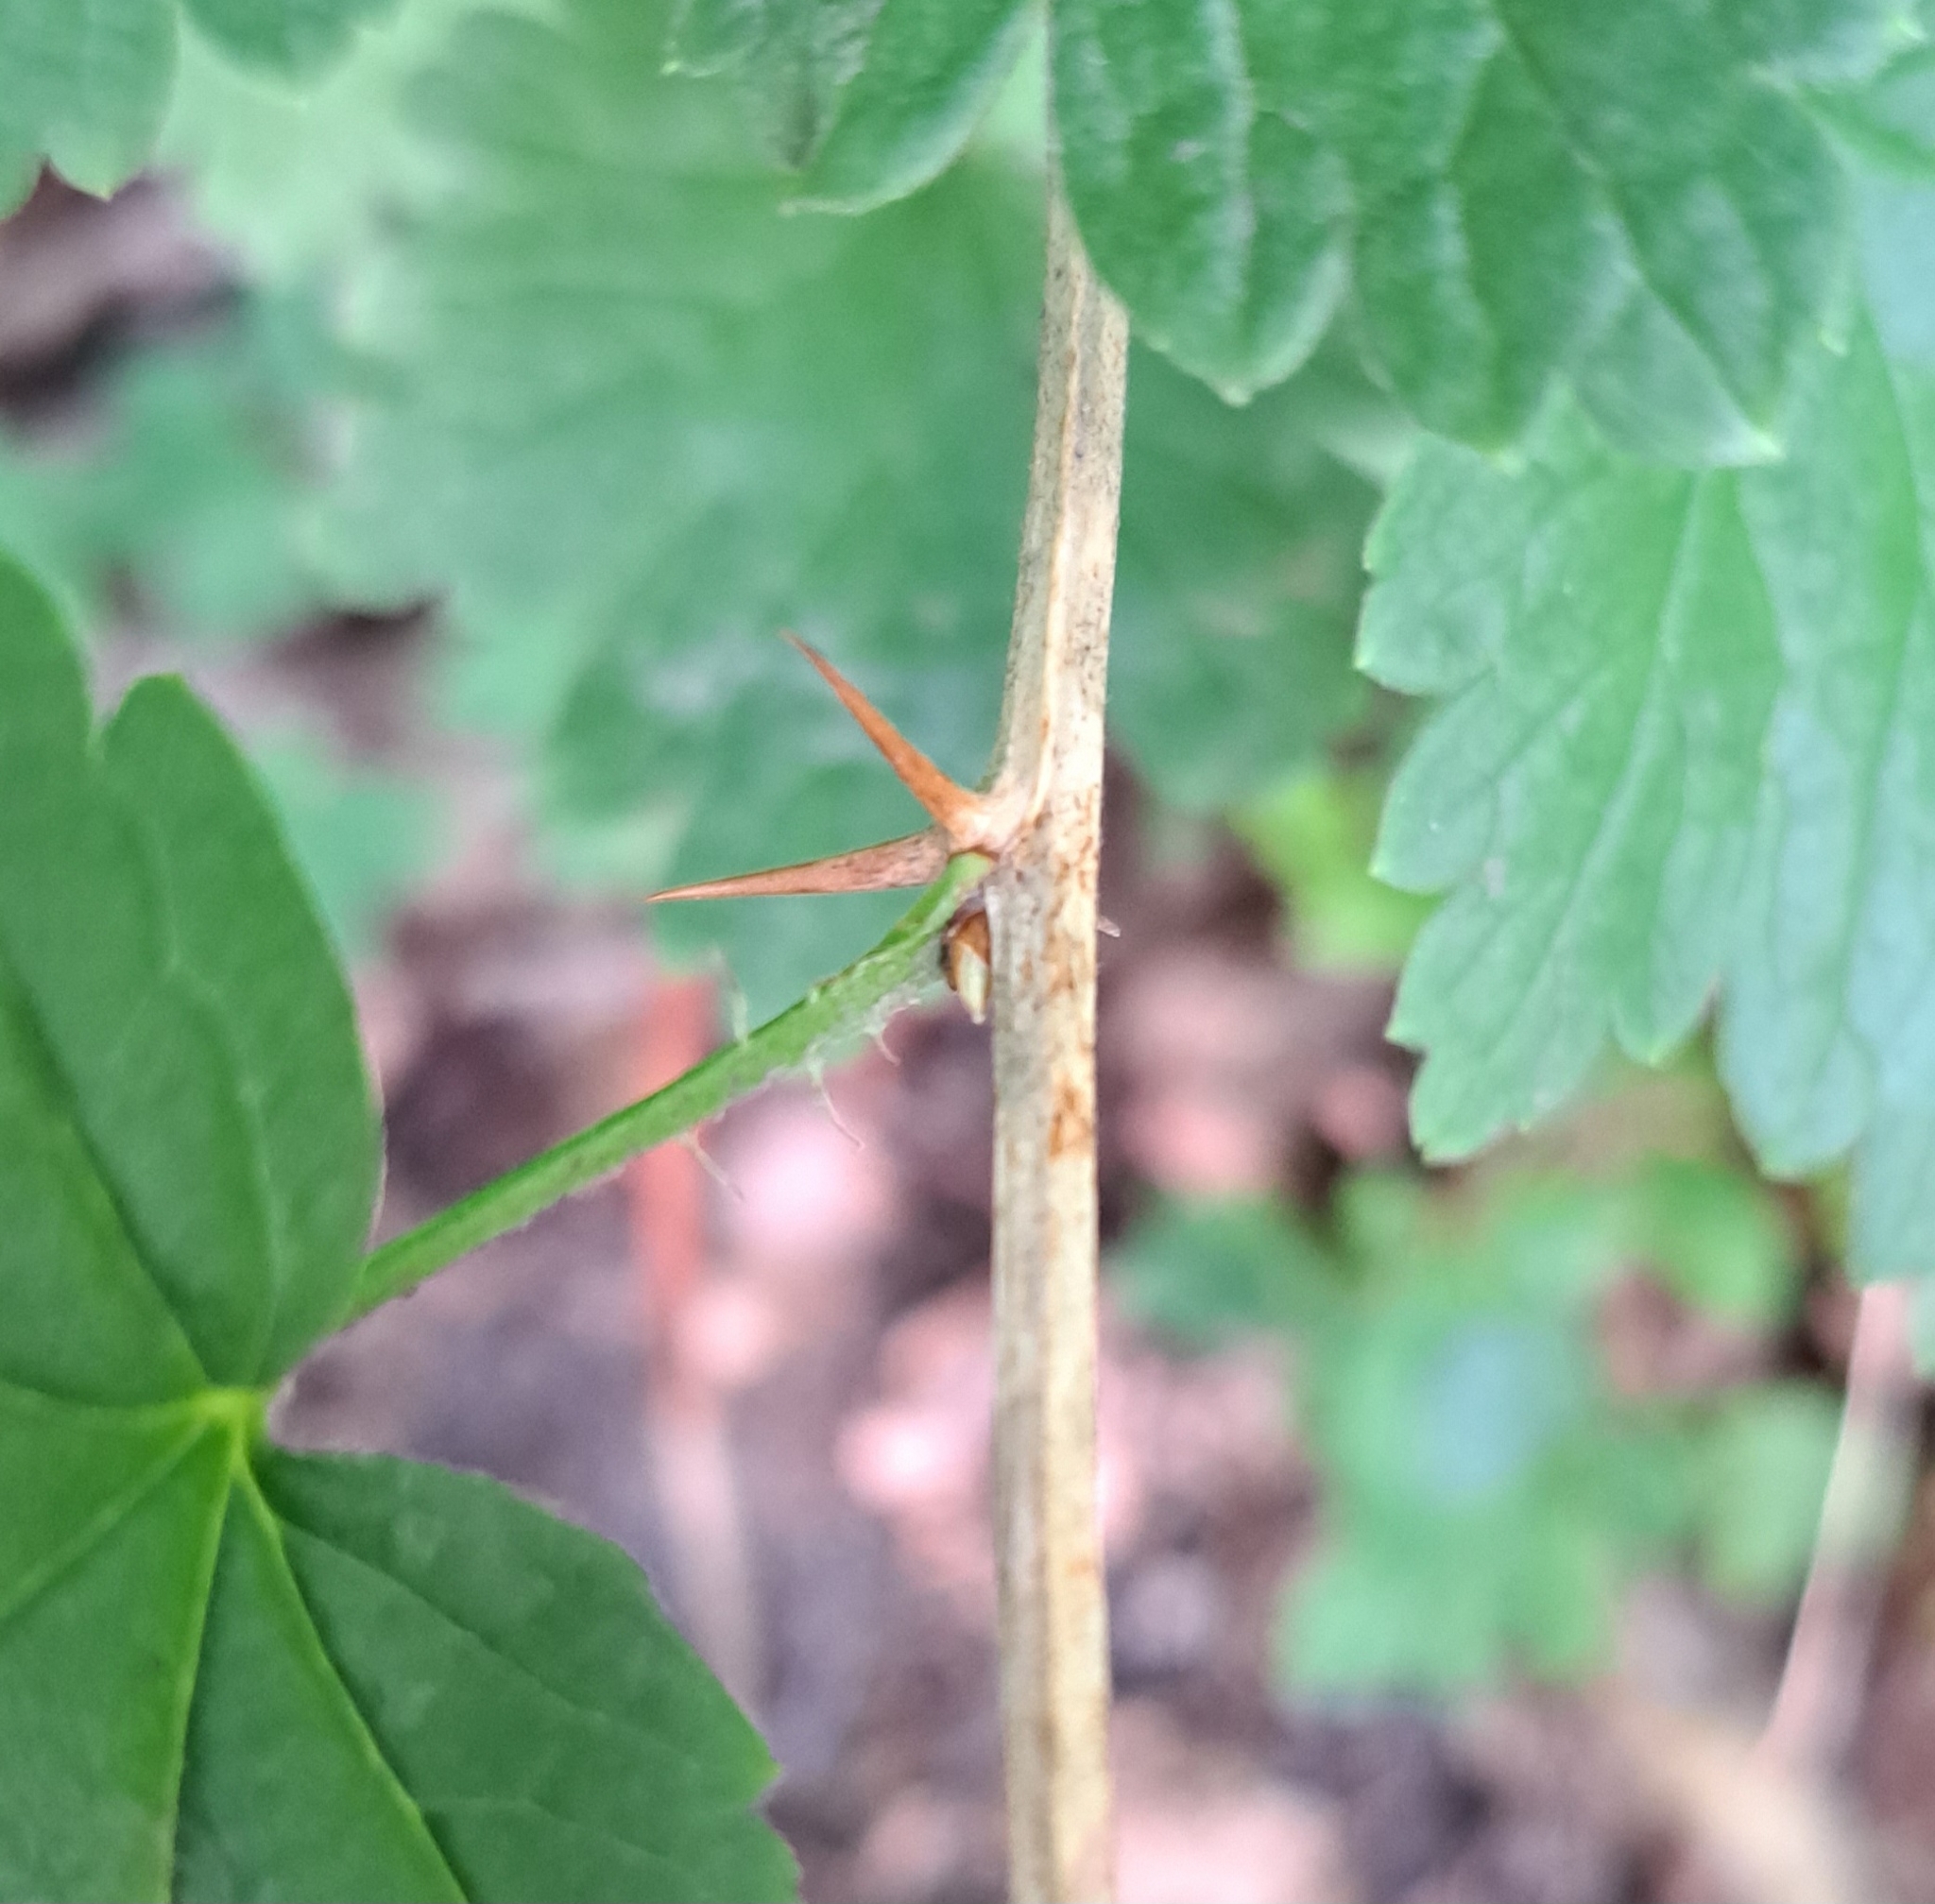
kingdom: Plantae
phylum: Tracheophyta
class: Magnoliopsida
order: Saxifragales
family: Grossulariaceae
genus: Ribes
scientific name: Ribes uva-crispa
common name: Gooseberry
